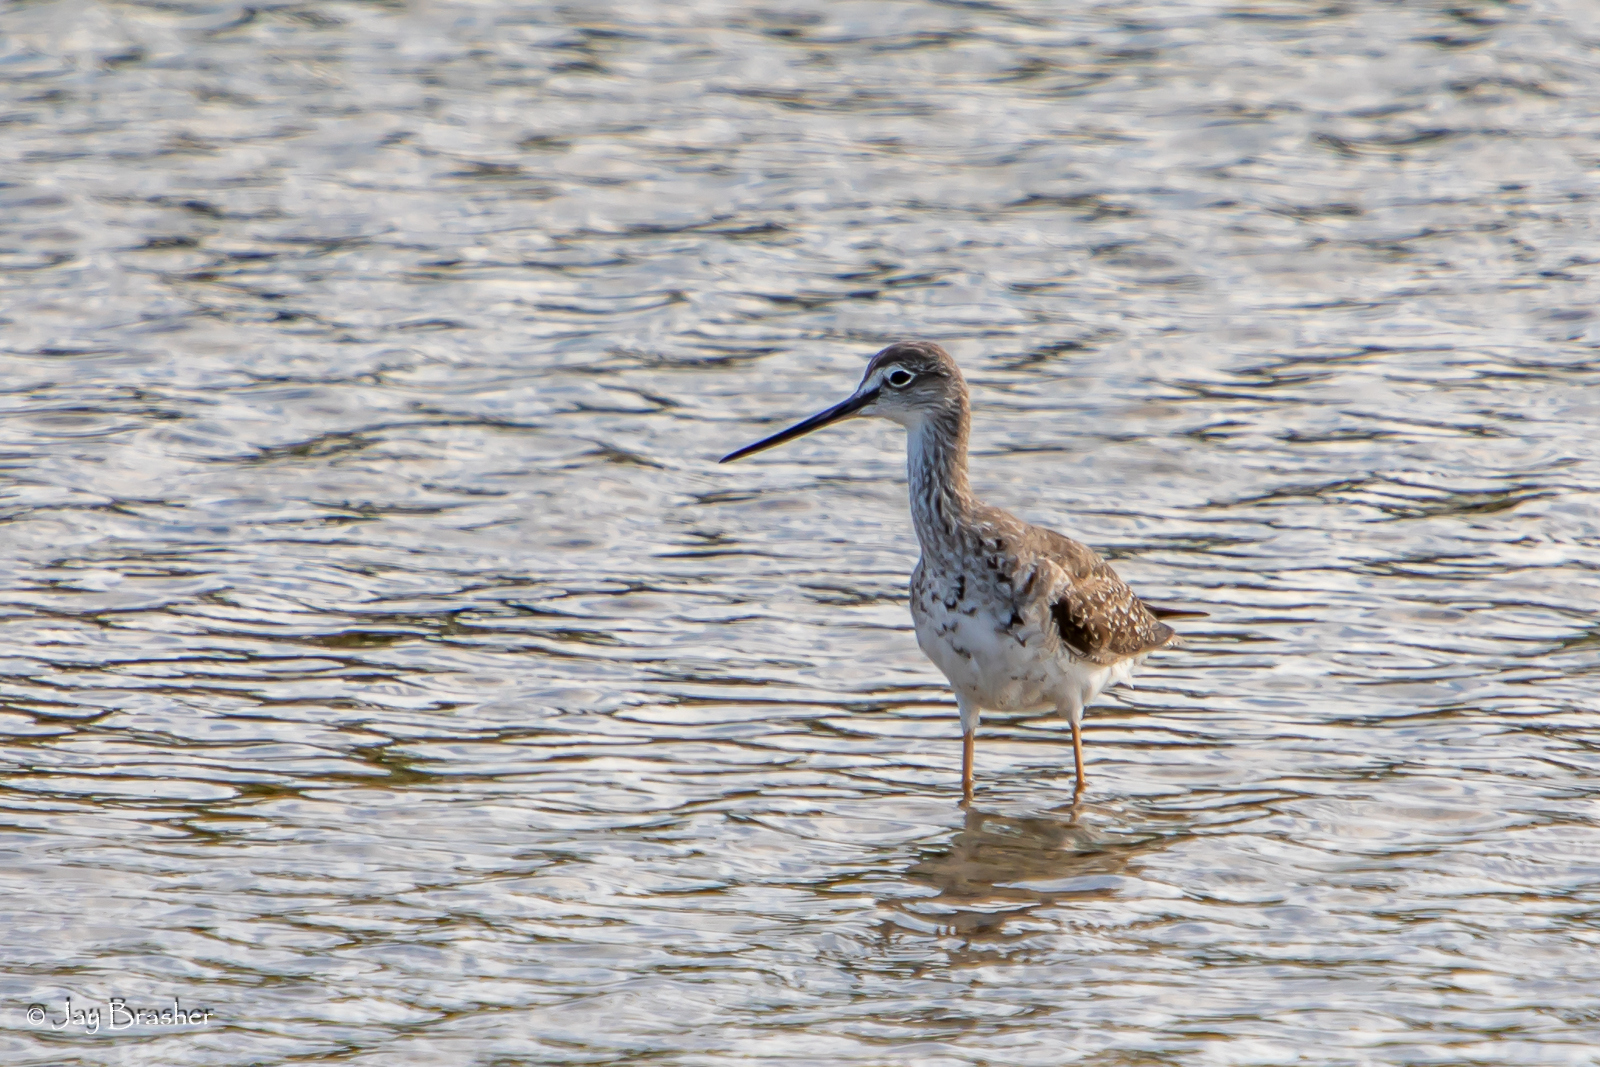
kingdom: Animalia
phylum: Chordata
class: Aves
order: Charadriiformes
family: Scolopacidae
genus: Tringa
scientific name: Tringa melanoleuca
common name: Greater yellowlegs
